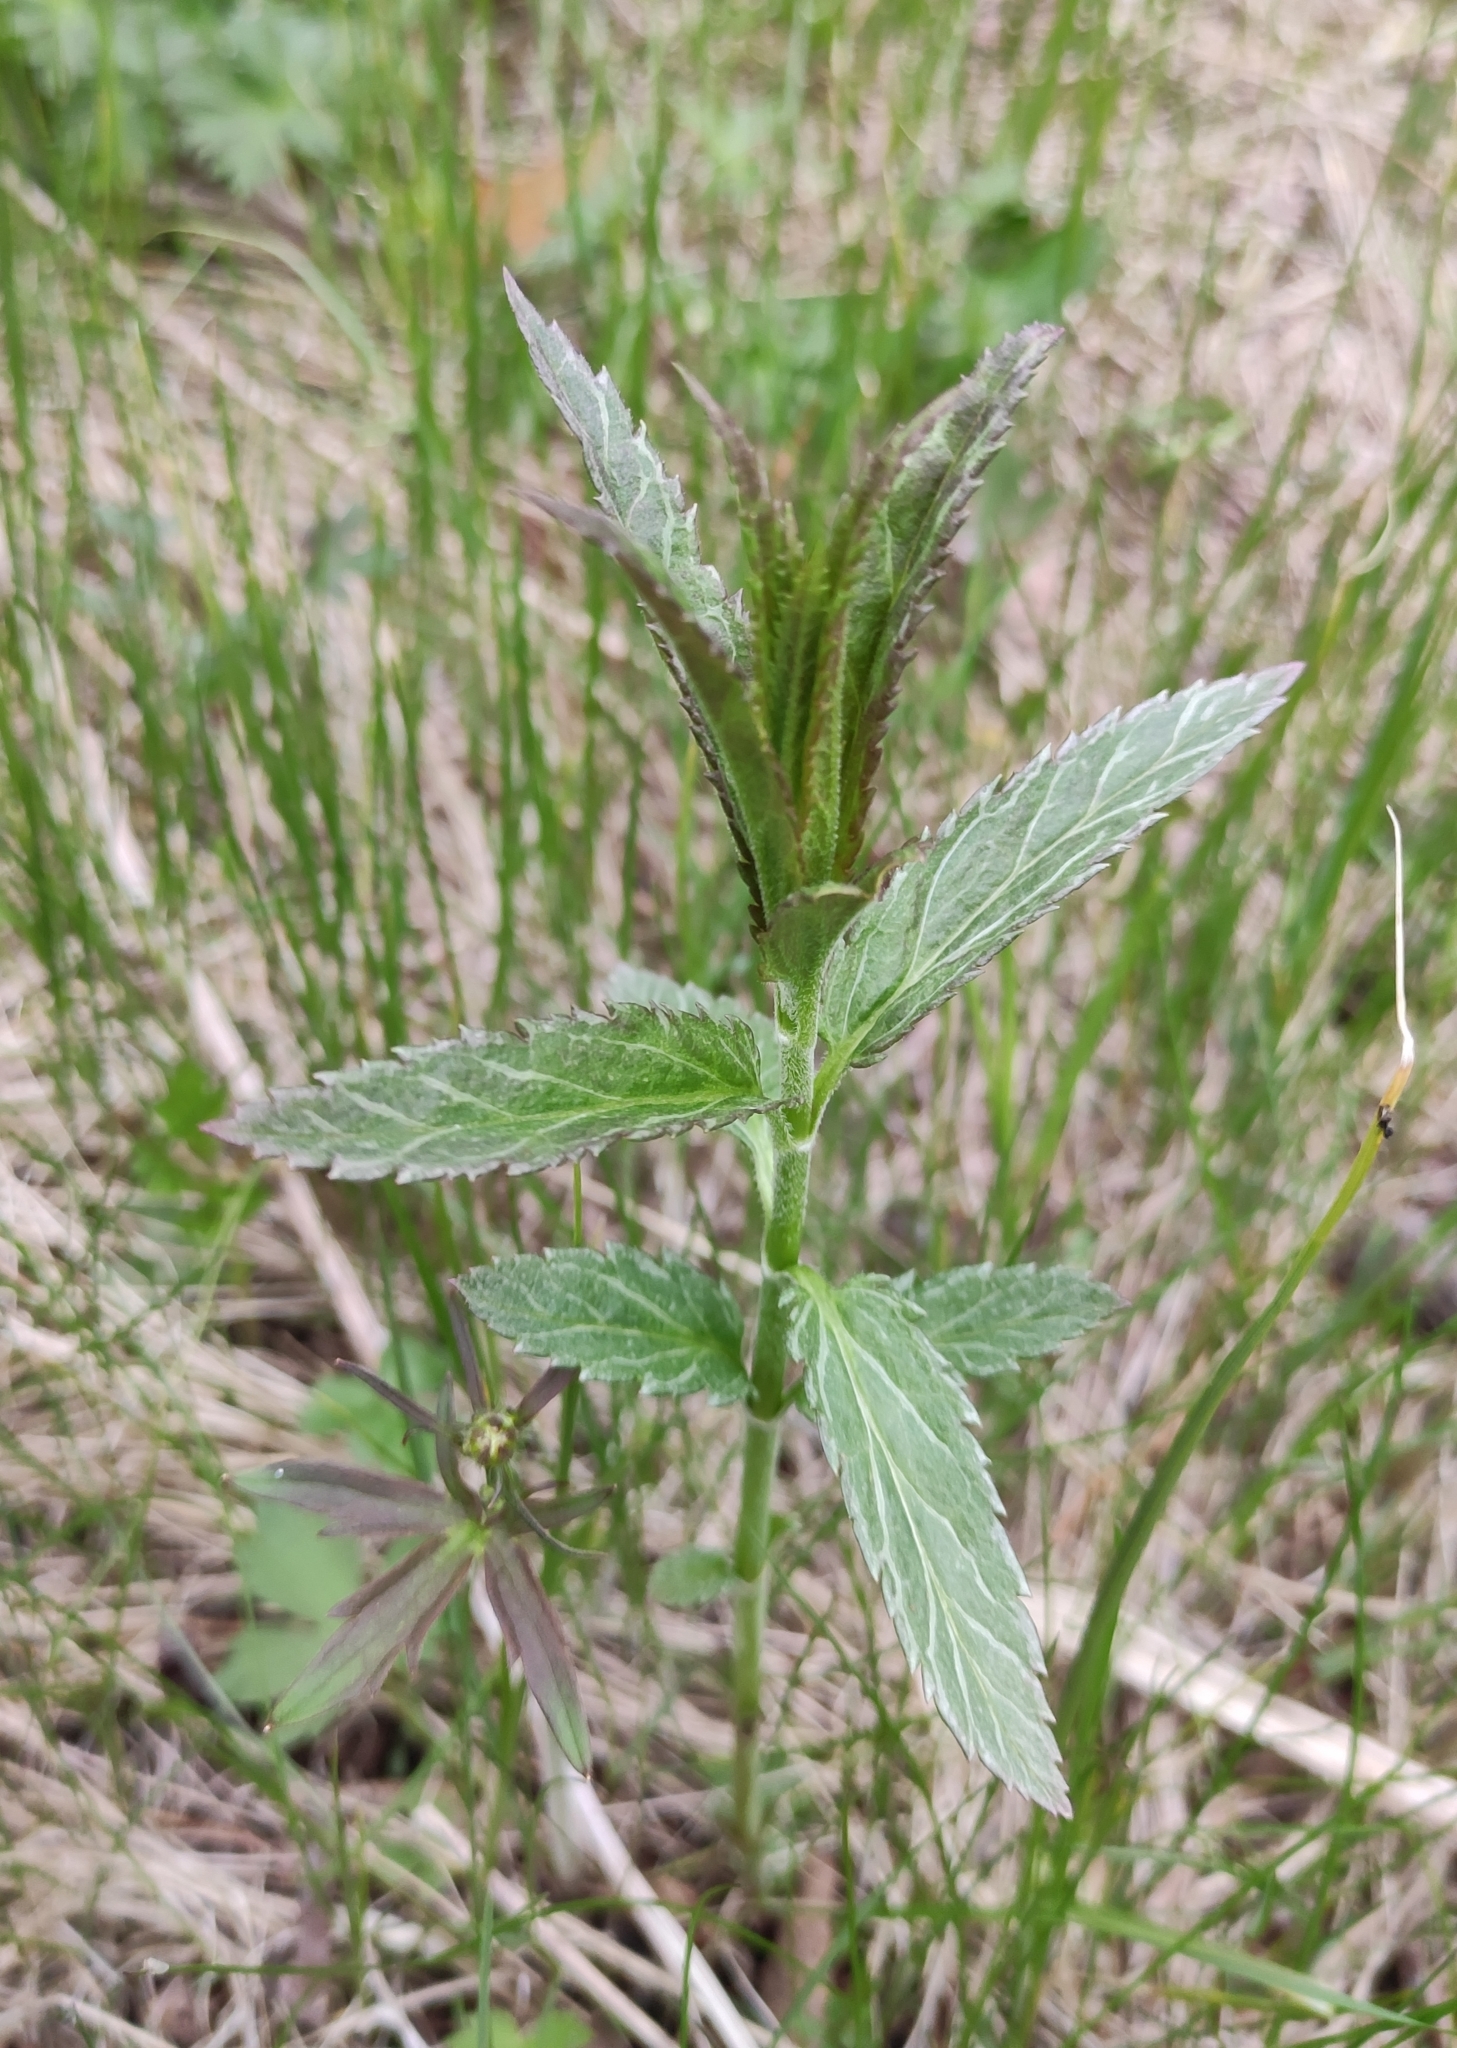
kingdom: Plantae
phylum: Tracheophyta
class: Magnoliopsida
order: Lamiales
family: Plantaginaceae
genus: Veronica
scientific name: Veronica longifolia
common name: Garden speedwell
